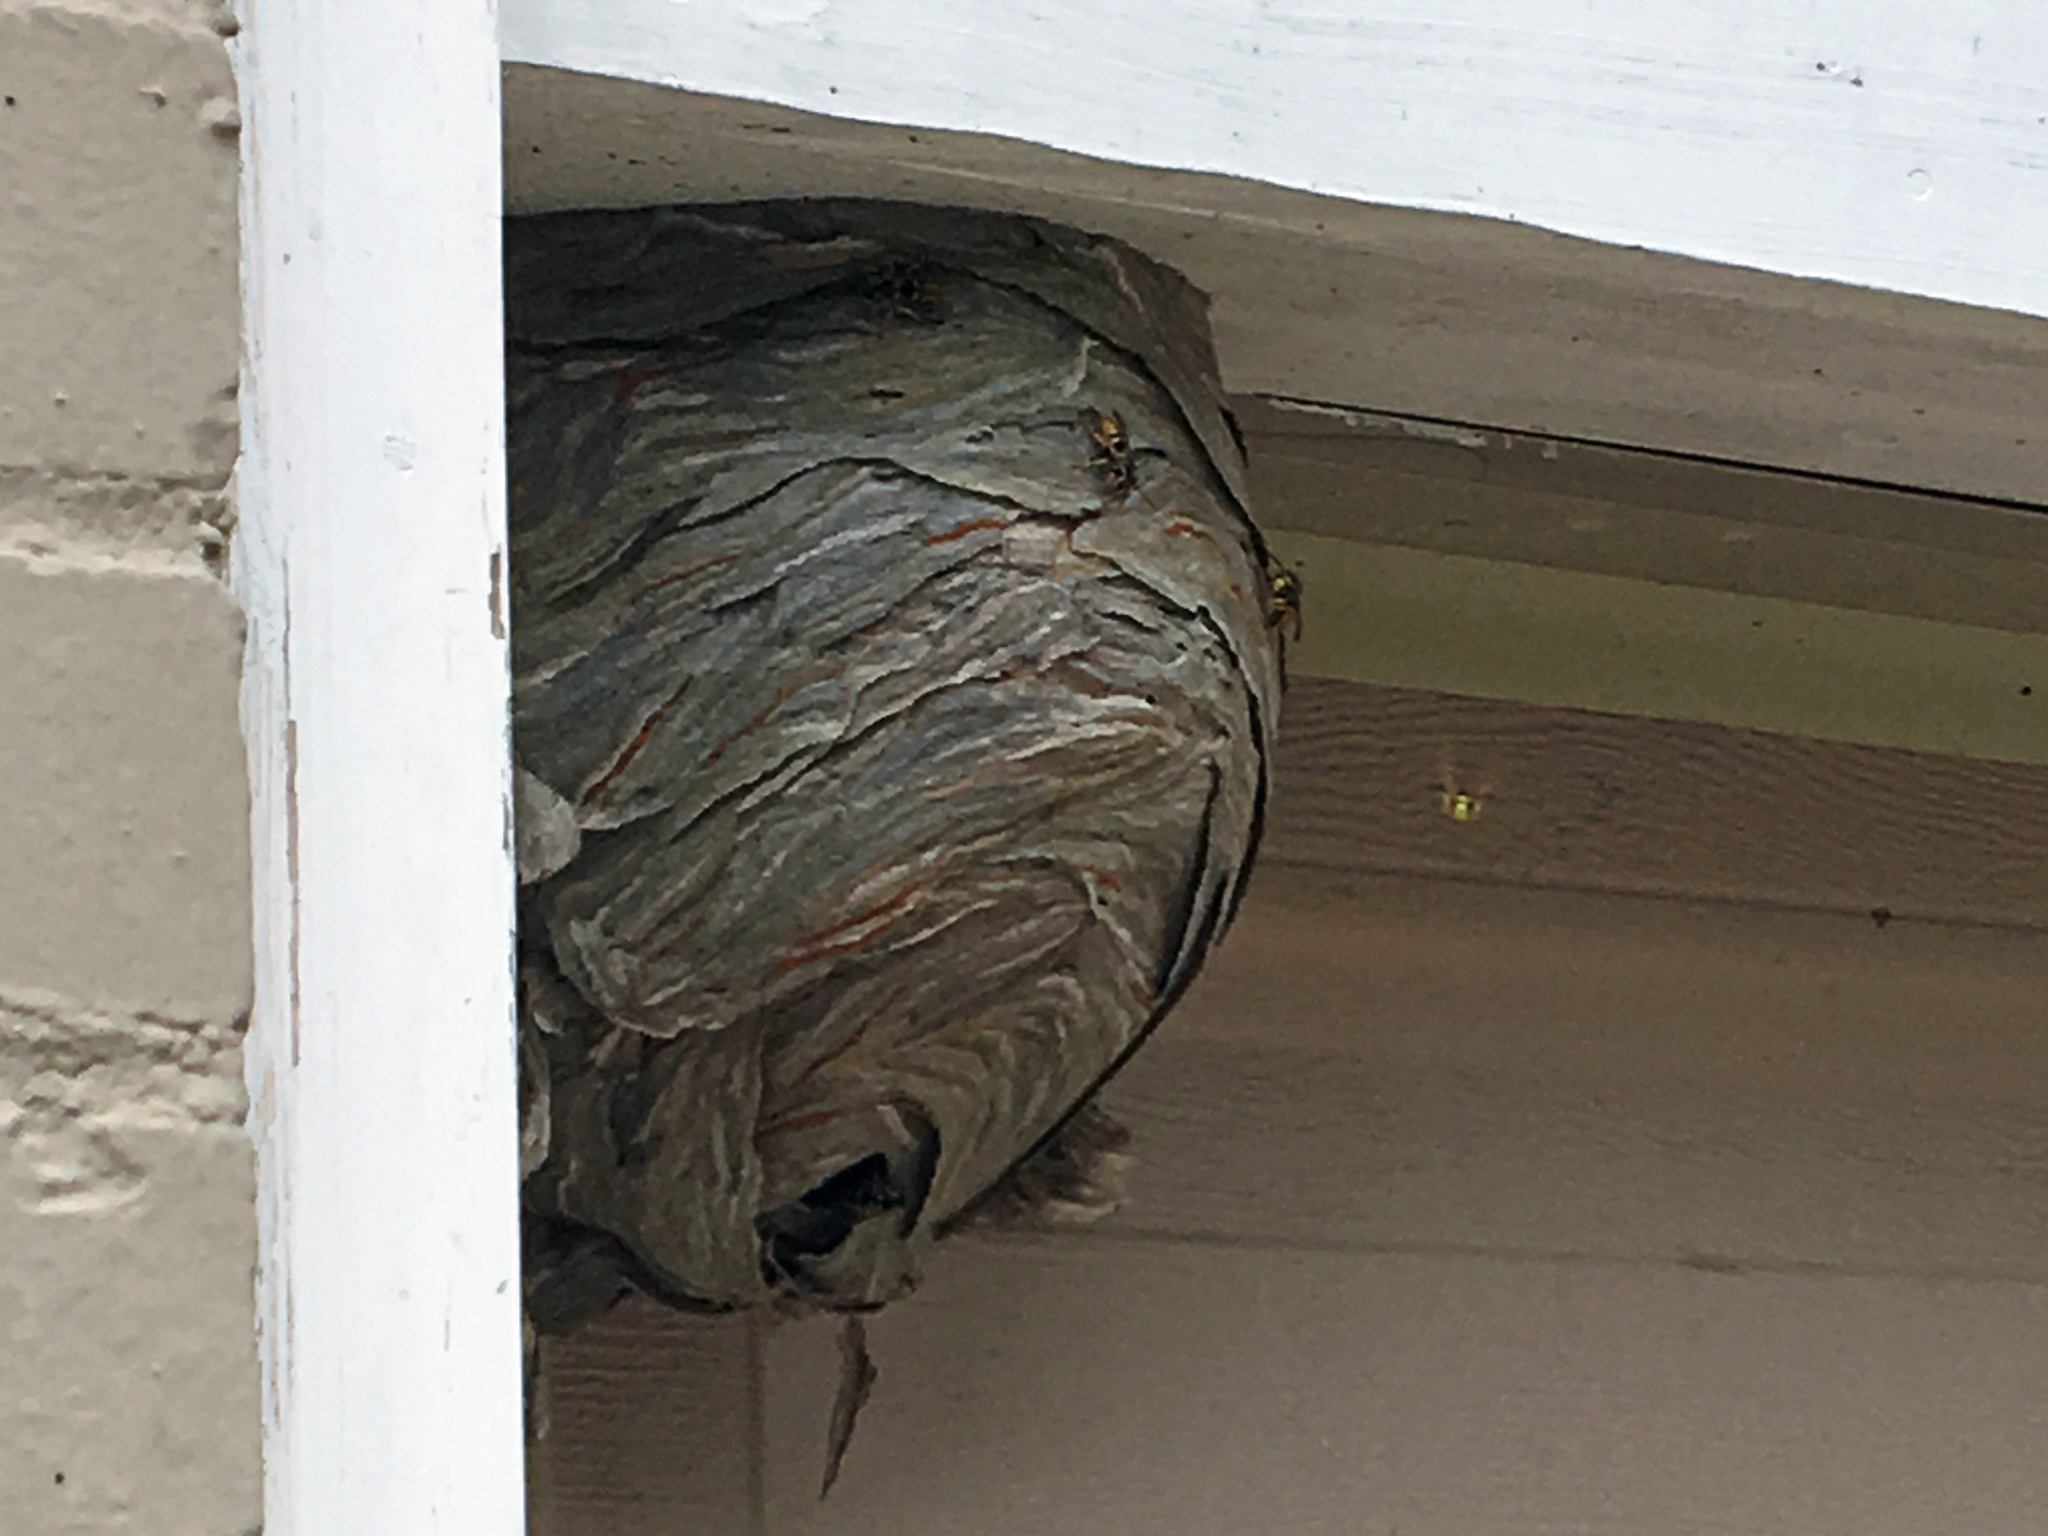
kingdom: Animalia
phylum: Arthropoda
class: Insecta
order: Hymenoptera
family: Vespidae
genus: Dolichovespula
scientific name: Dolichovespula arenaria
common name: Aerial yellowjacket
